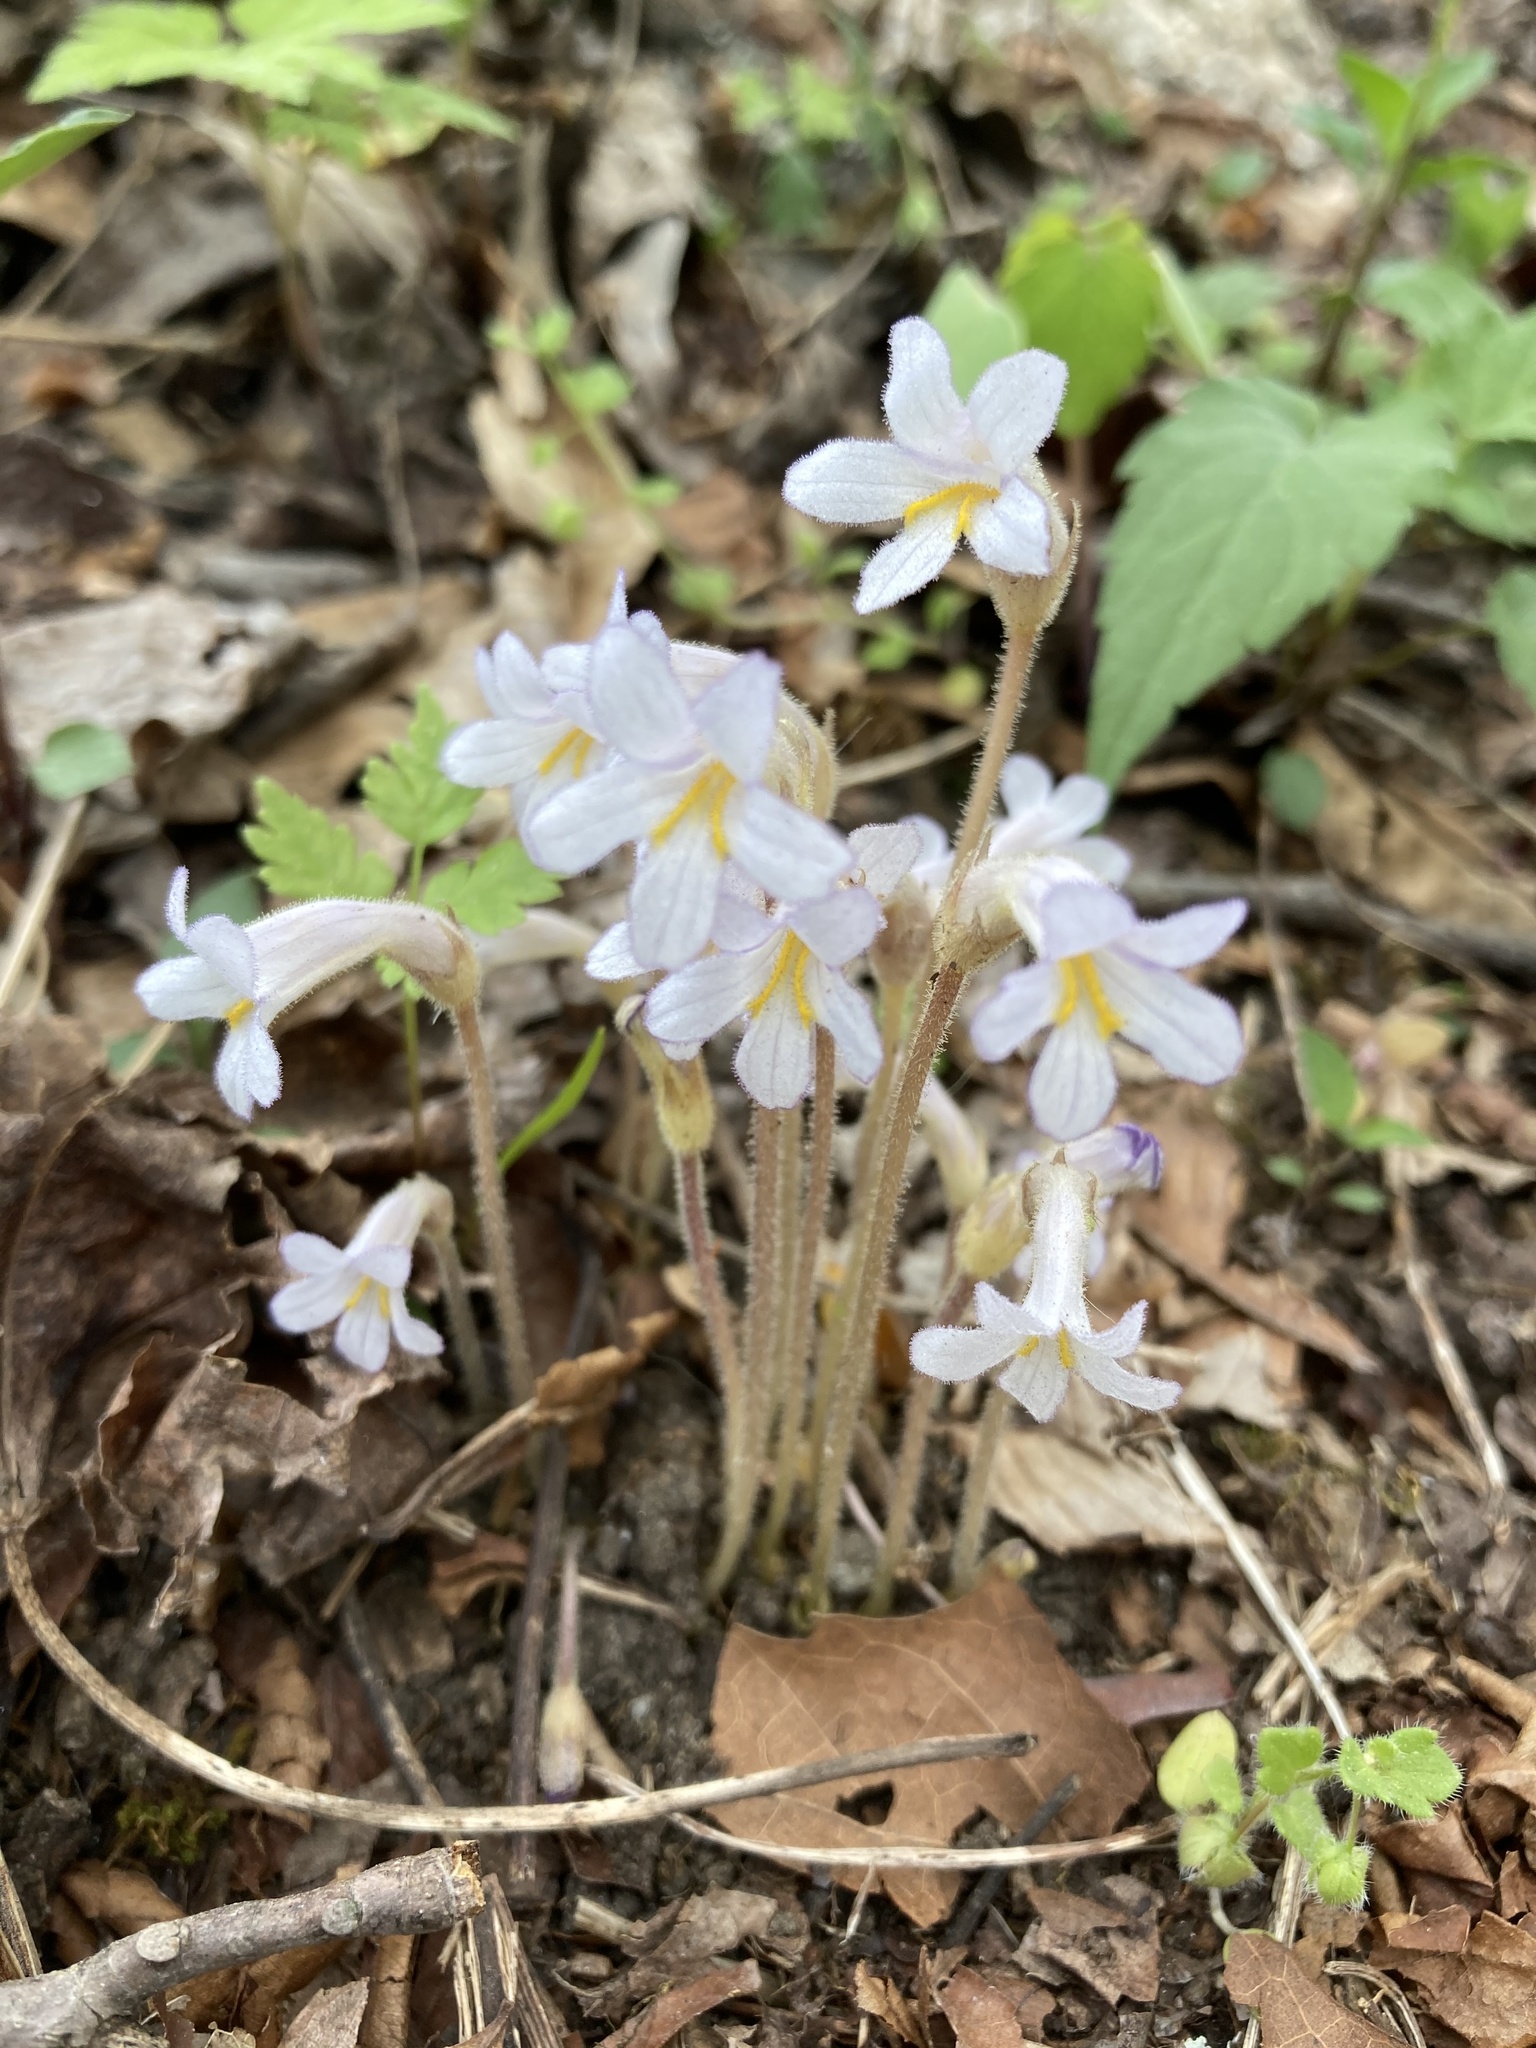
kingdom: Plantae
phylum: Tracheophyta
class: Magnoliopsida
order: Lamiales
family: Orobanchaceae
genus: Aphyllon
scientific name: Aphyllon uniflorum
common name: One-flowered broomrape
